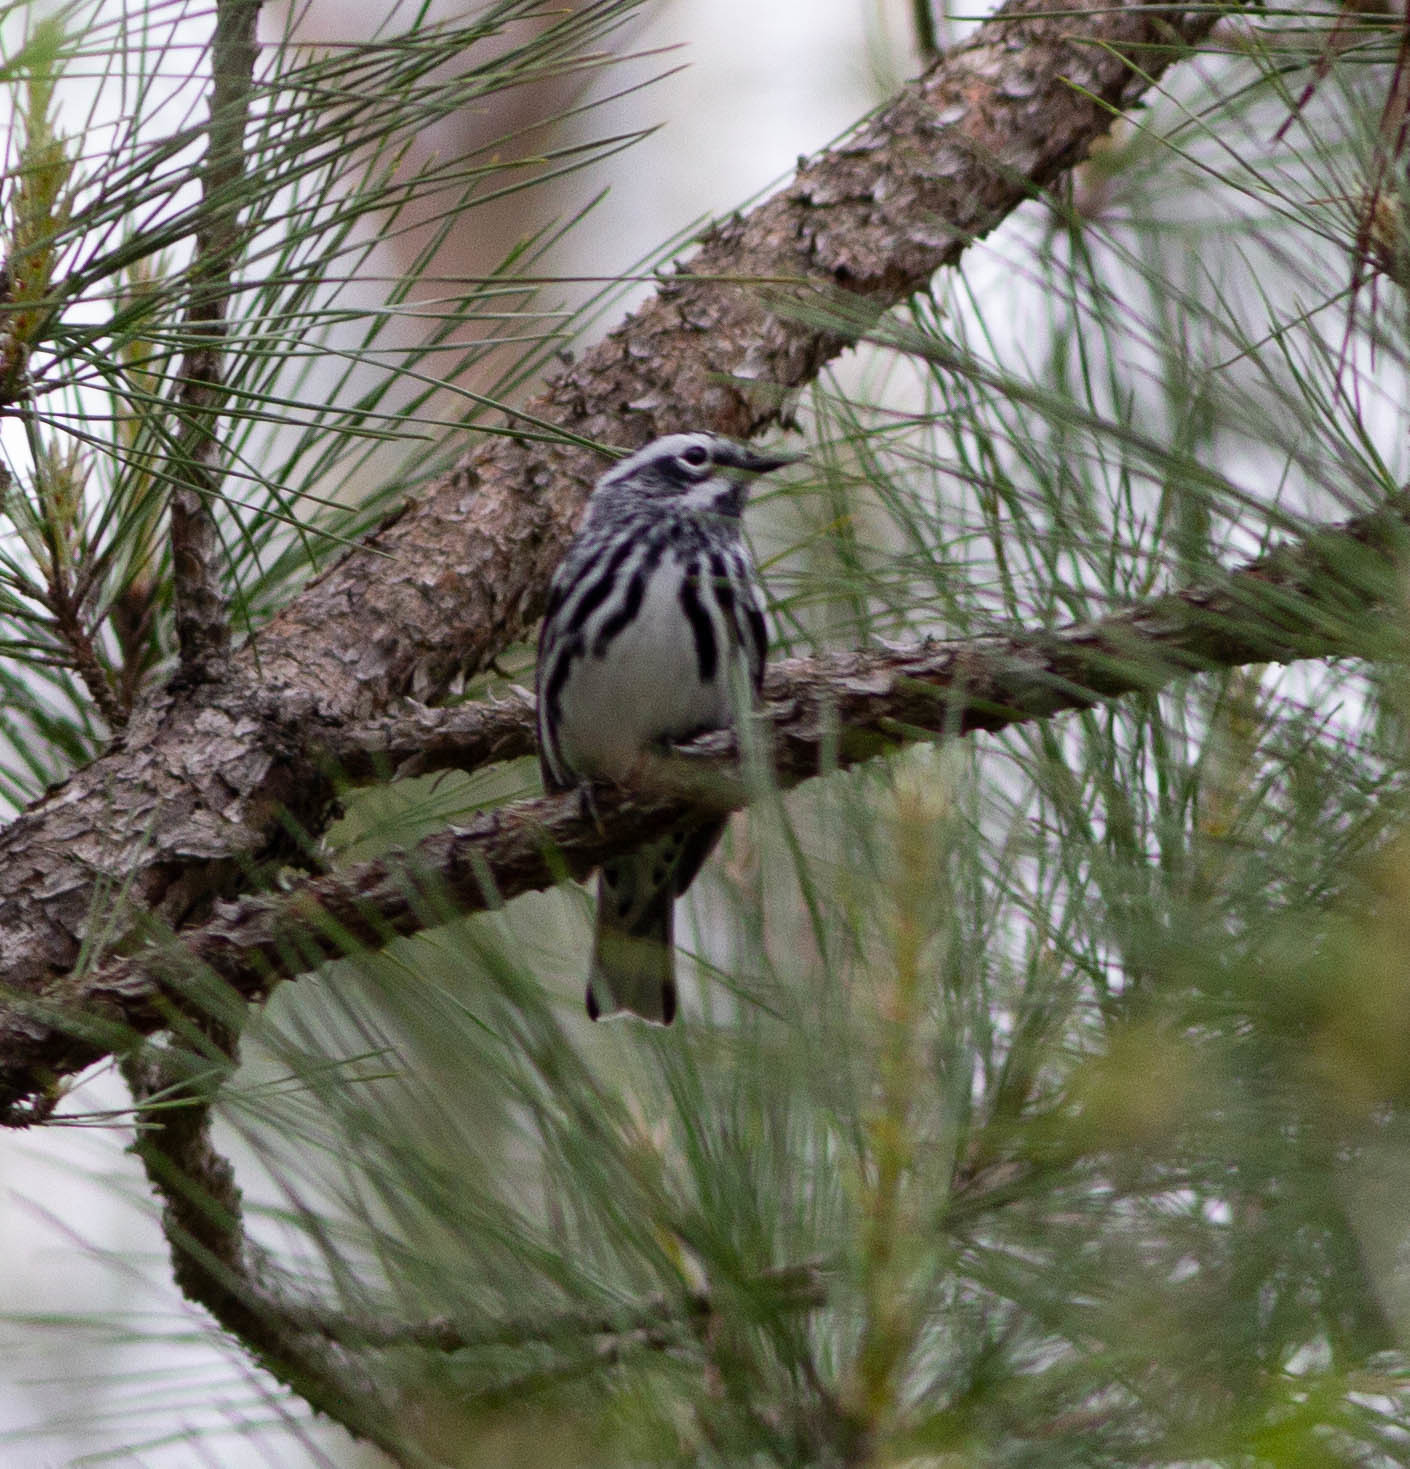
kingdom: Animalia
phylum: Chordata
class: Aves
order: Passeriformes
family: Parulidae
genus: Mniotilta
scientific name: Mniotilta varia
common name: Black-and-white warbler
